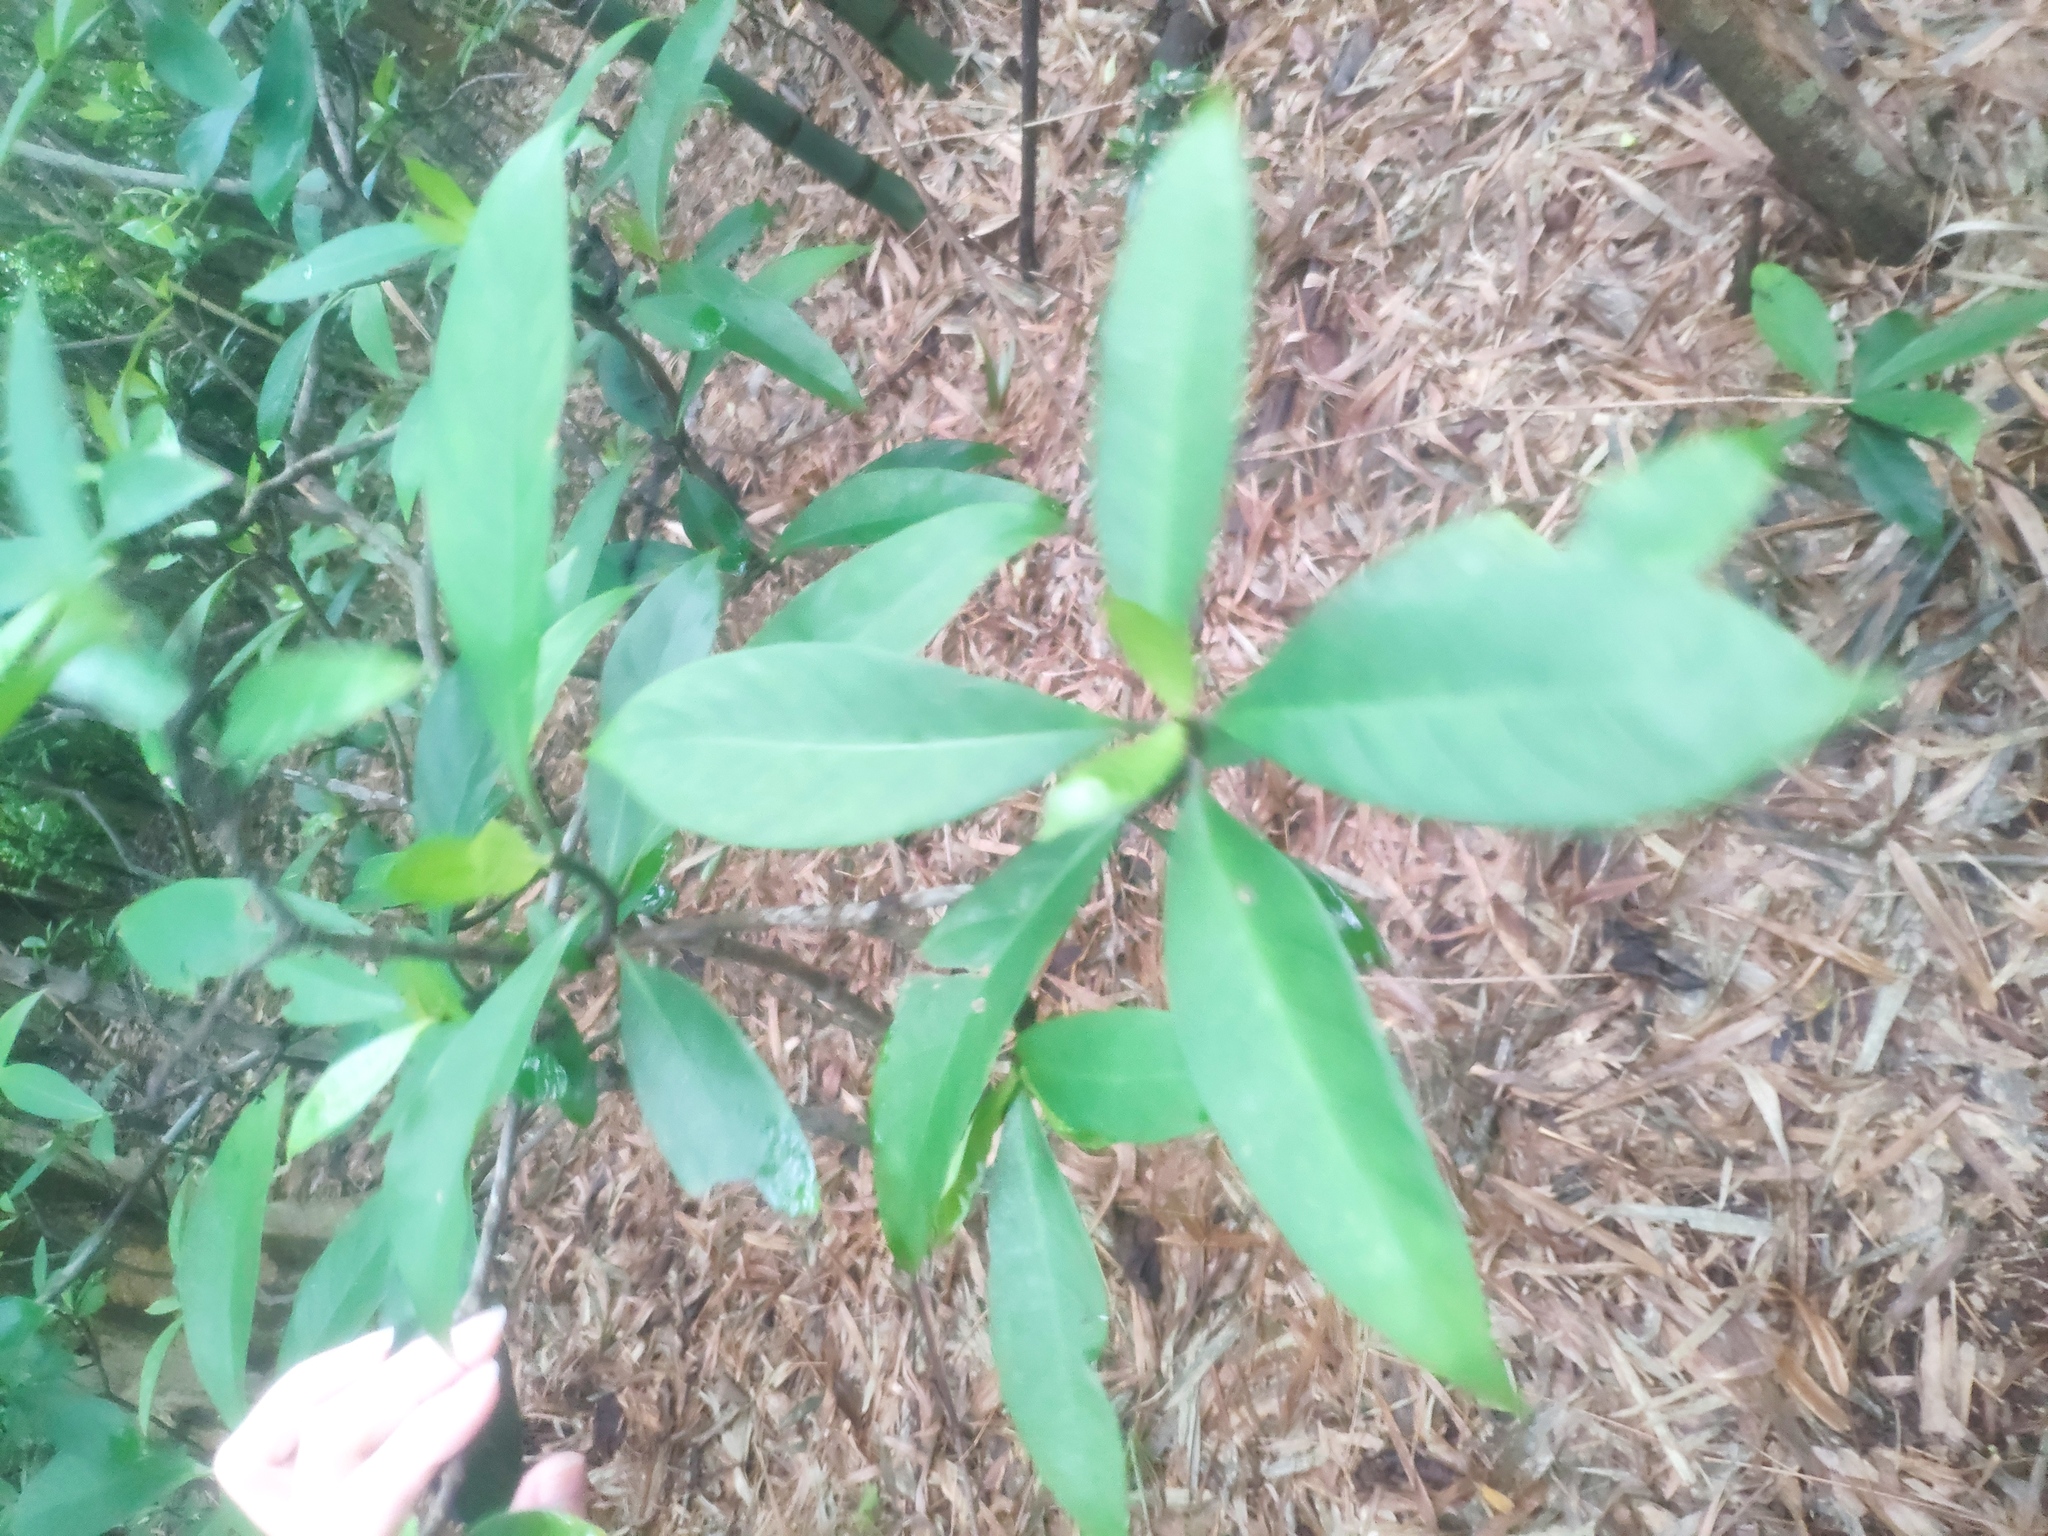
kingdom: Plantae
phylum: Tracheophyta
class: Magnoliopsida
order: Gentianales
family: Rubiaceae
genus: Psychotria
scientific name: Psychotria asiatica
